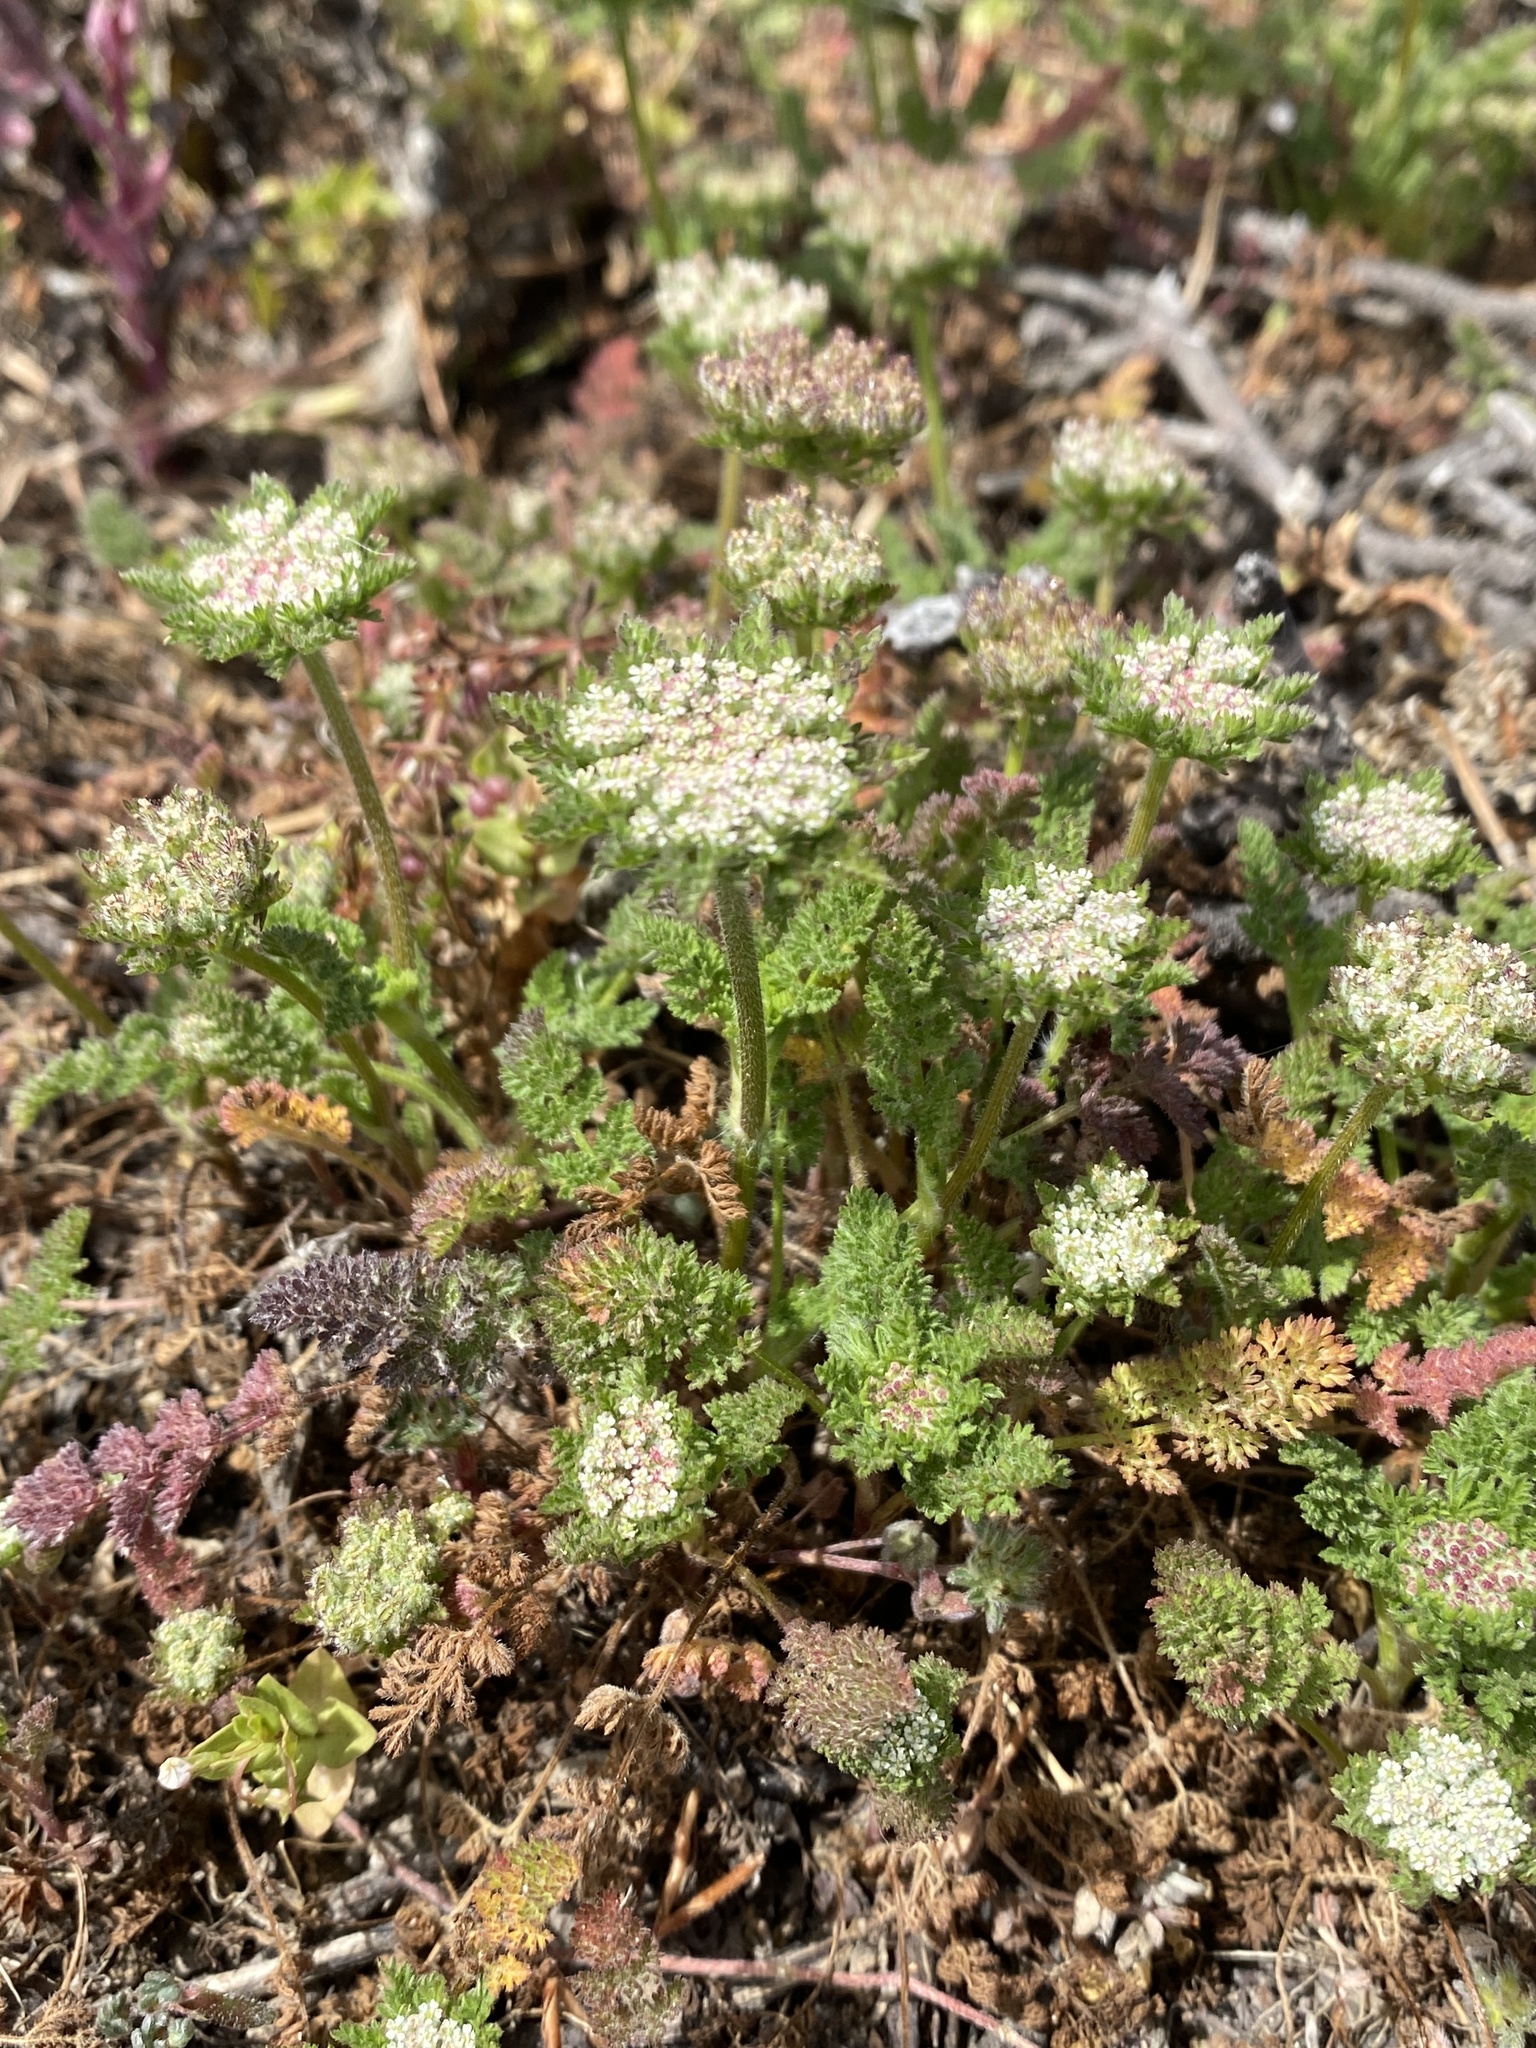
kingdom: Plantae
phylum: Tracheophyta
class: Magnoliopsida
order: Apiales
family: Apiaceae
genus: Daucus
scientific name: Daucus pusillus
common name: Southwest wild carrot
